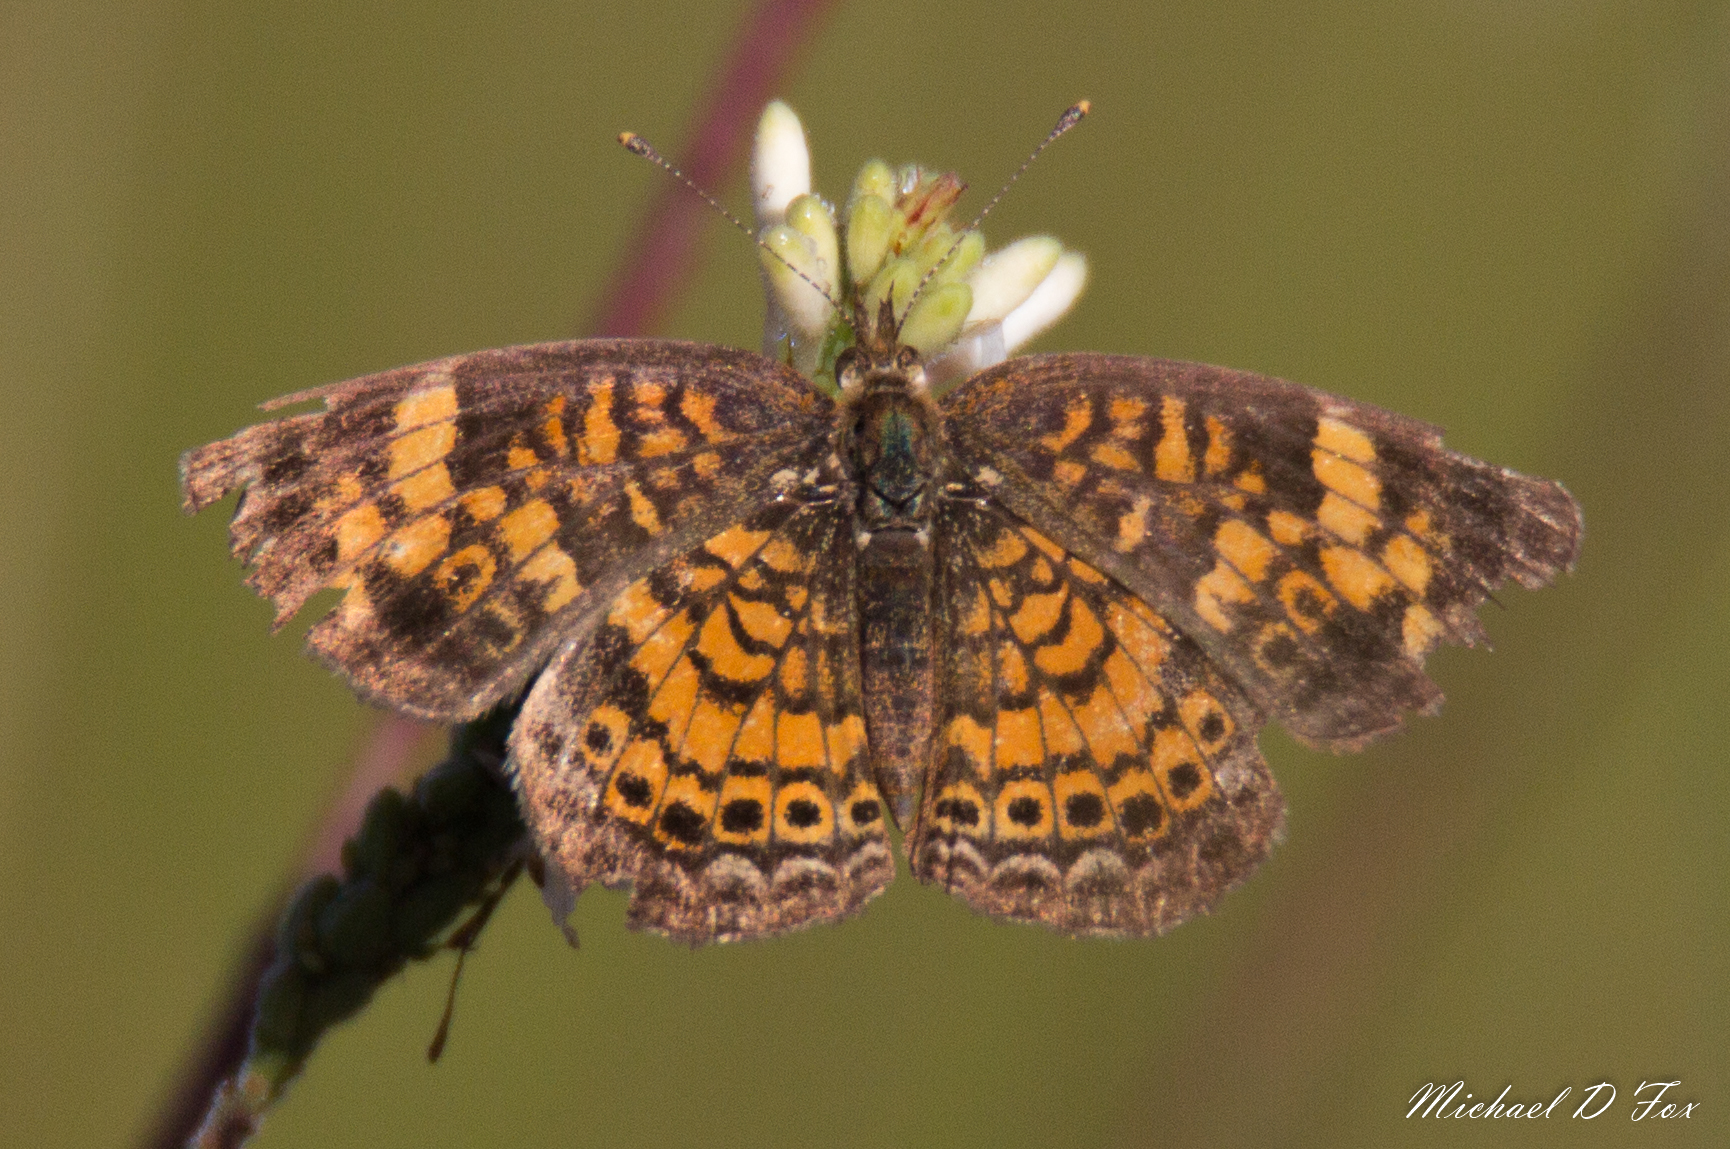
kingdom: Animalia
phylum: Arthropoda
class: Insecta
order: Lepidoptera
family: Nymphalidae
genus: Phyciodes
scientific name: Phyciodes tharos
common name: Pearl crescent
